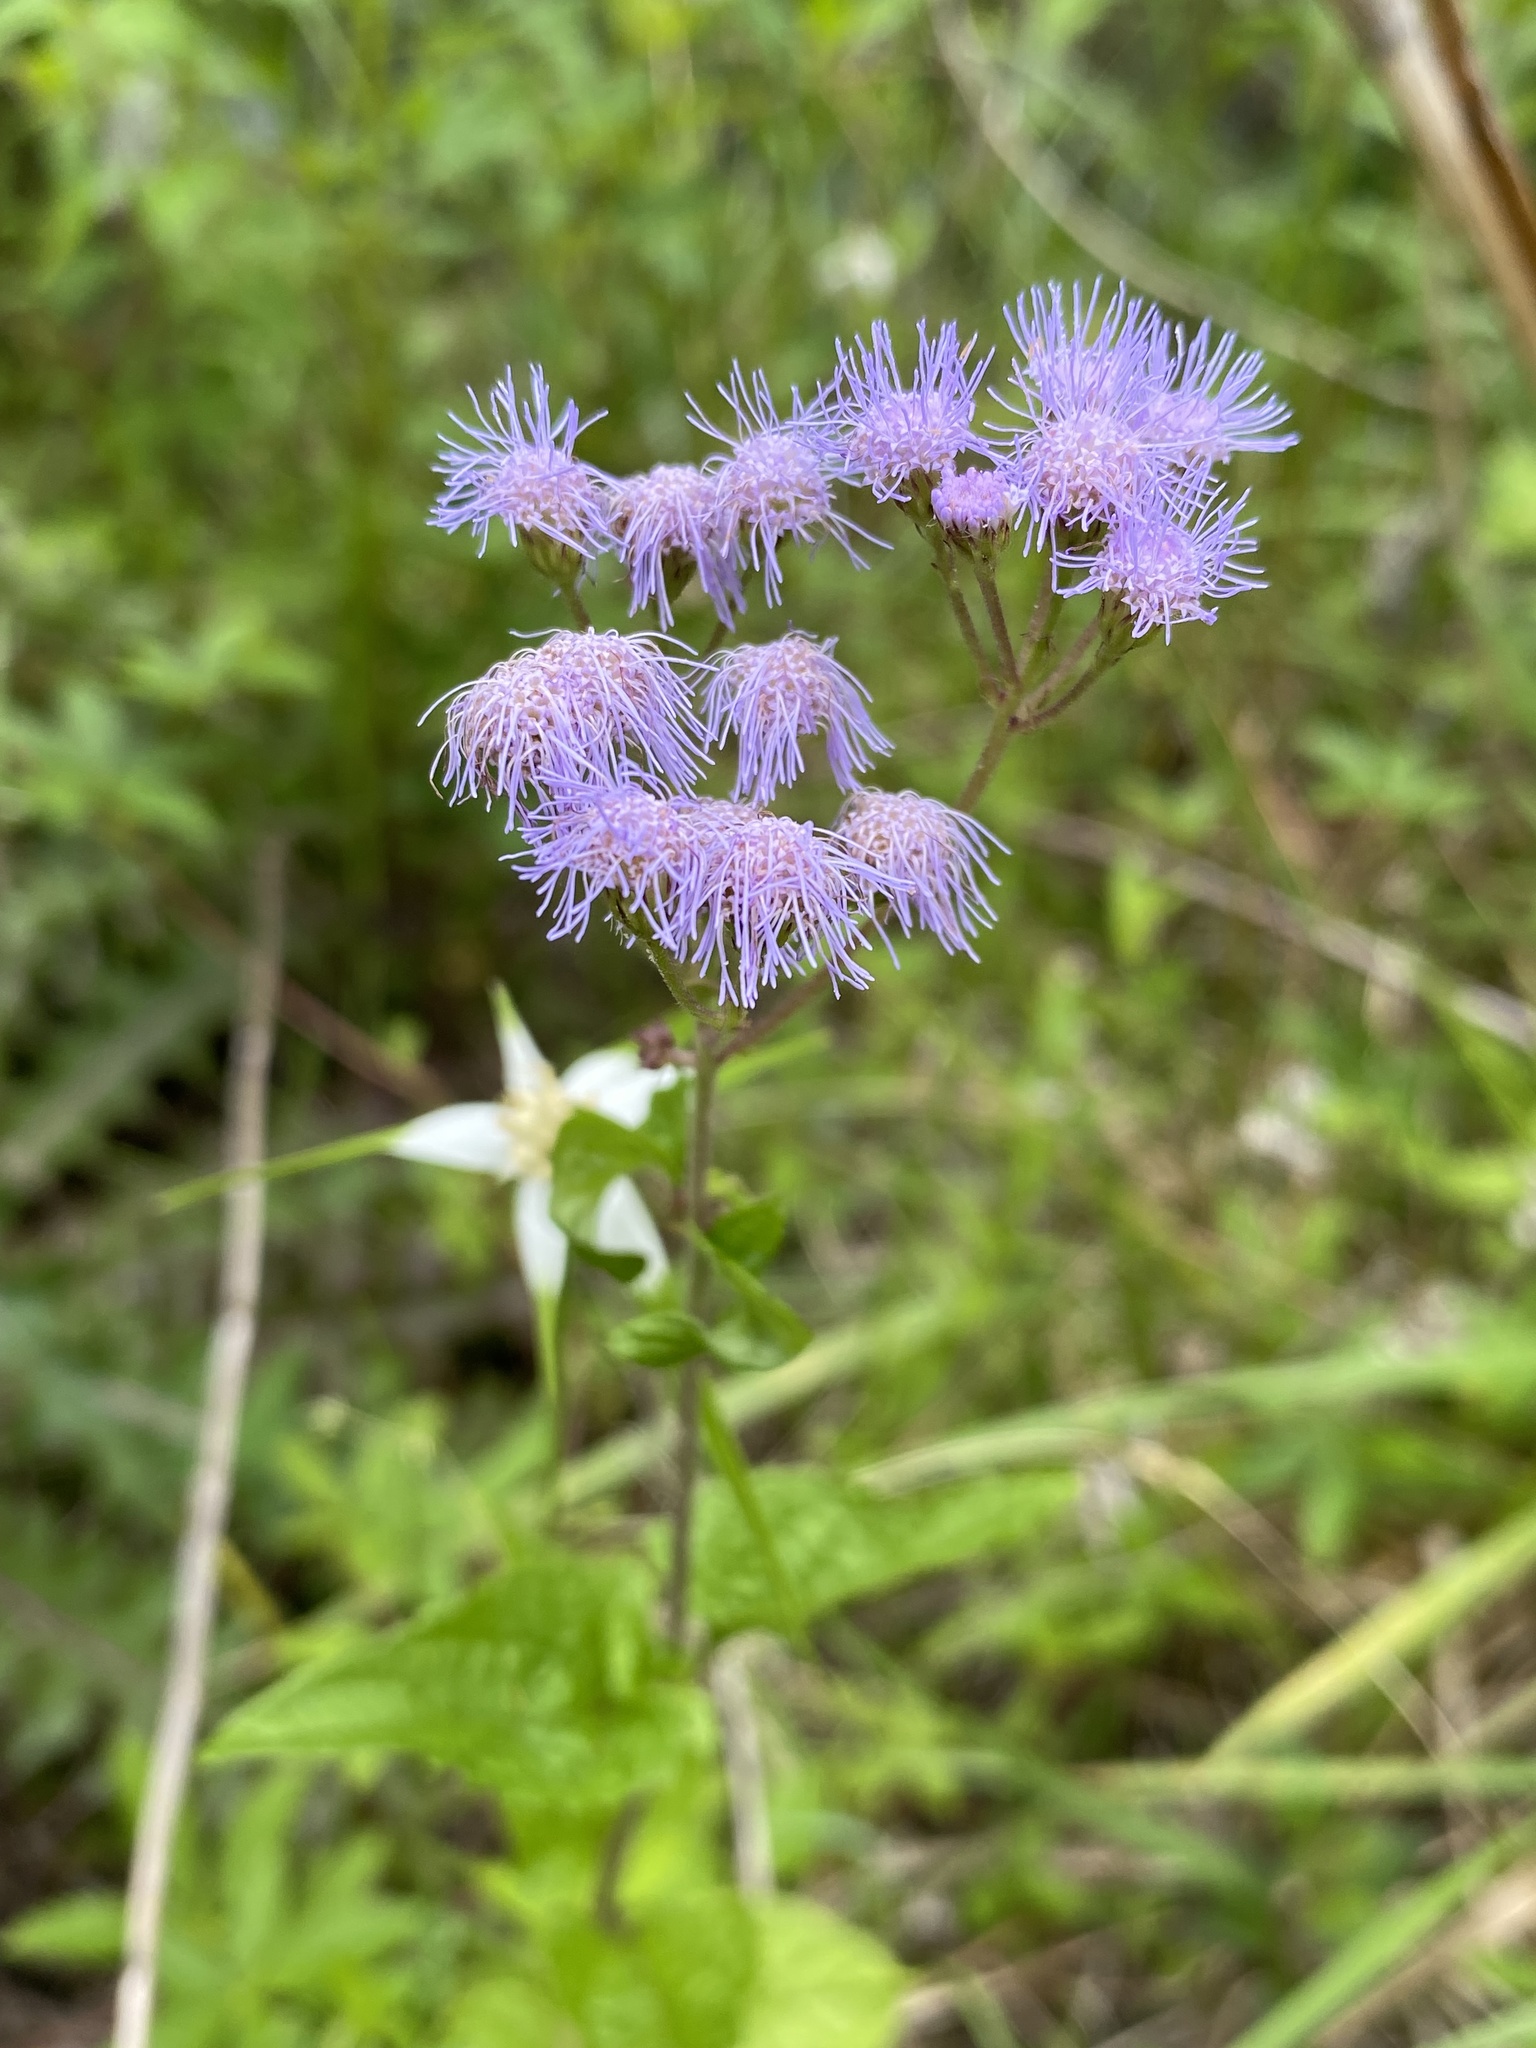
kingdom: Plantae
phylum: Tracheophyta
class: Magnoliopsida
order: Asterales
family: Asteraceae
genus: Conoclinium
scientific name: Conoclinium coelestinum
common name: Blue mistflower
